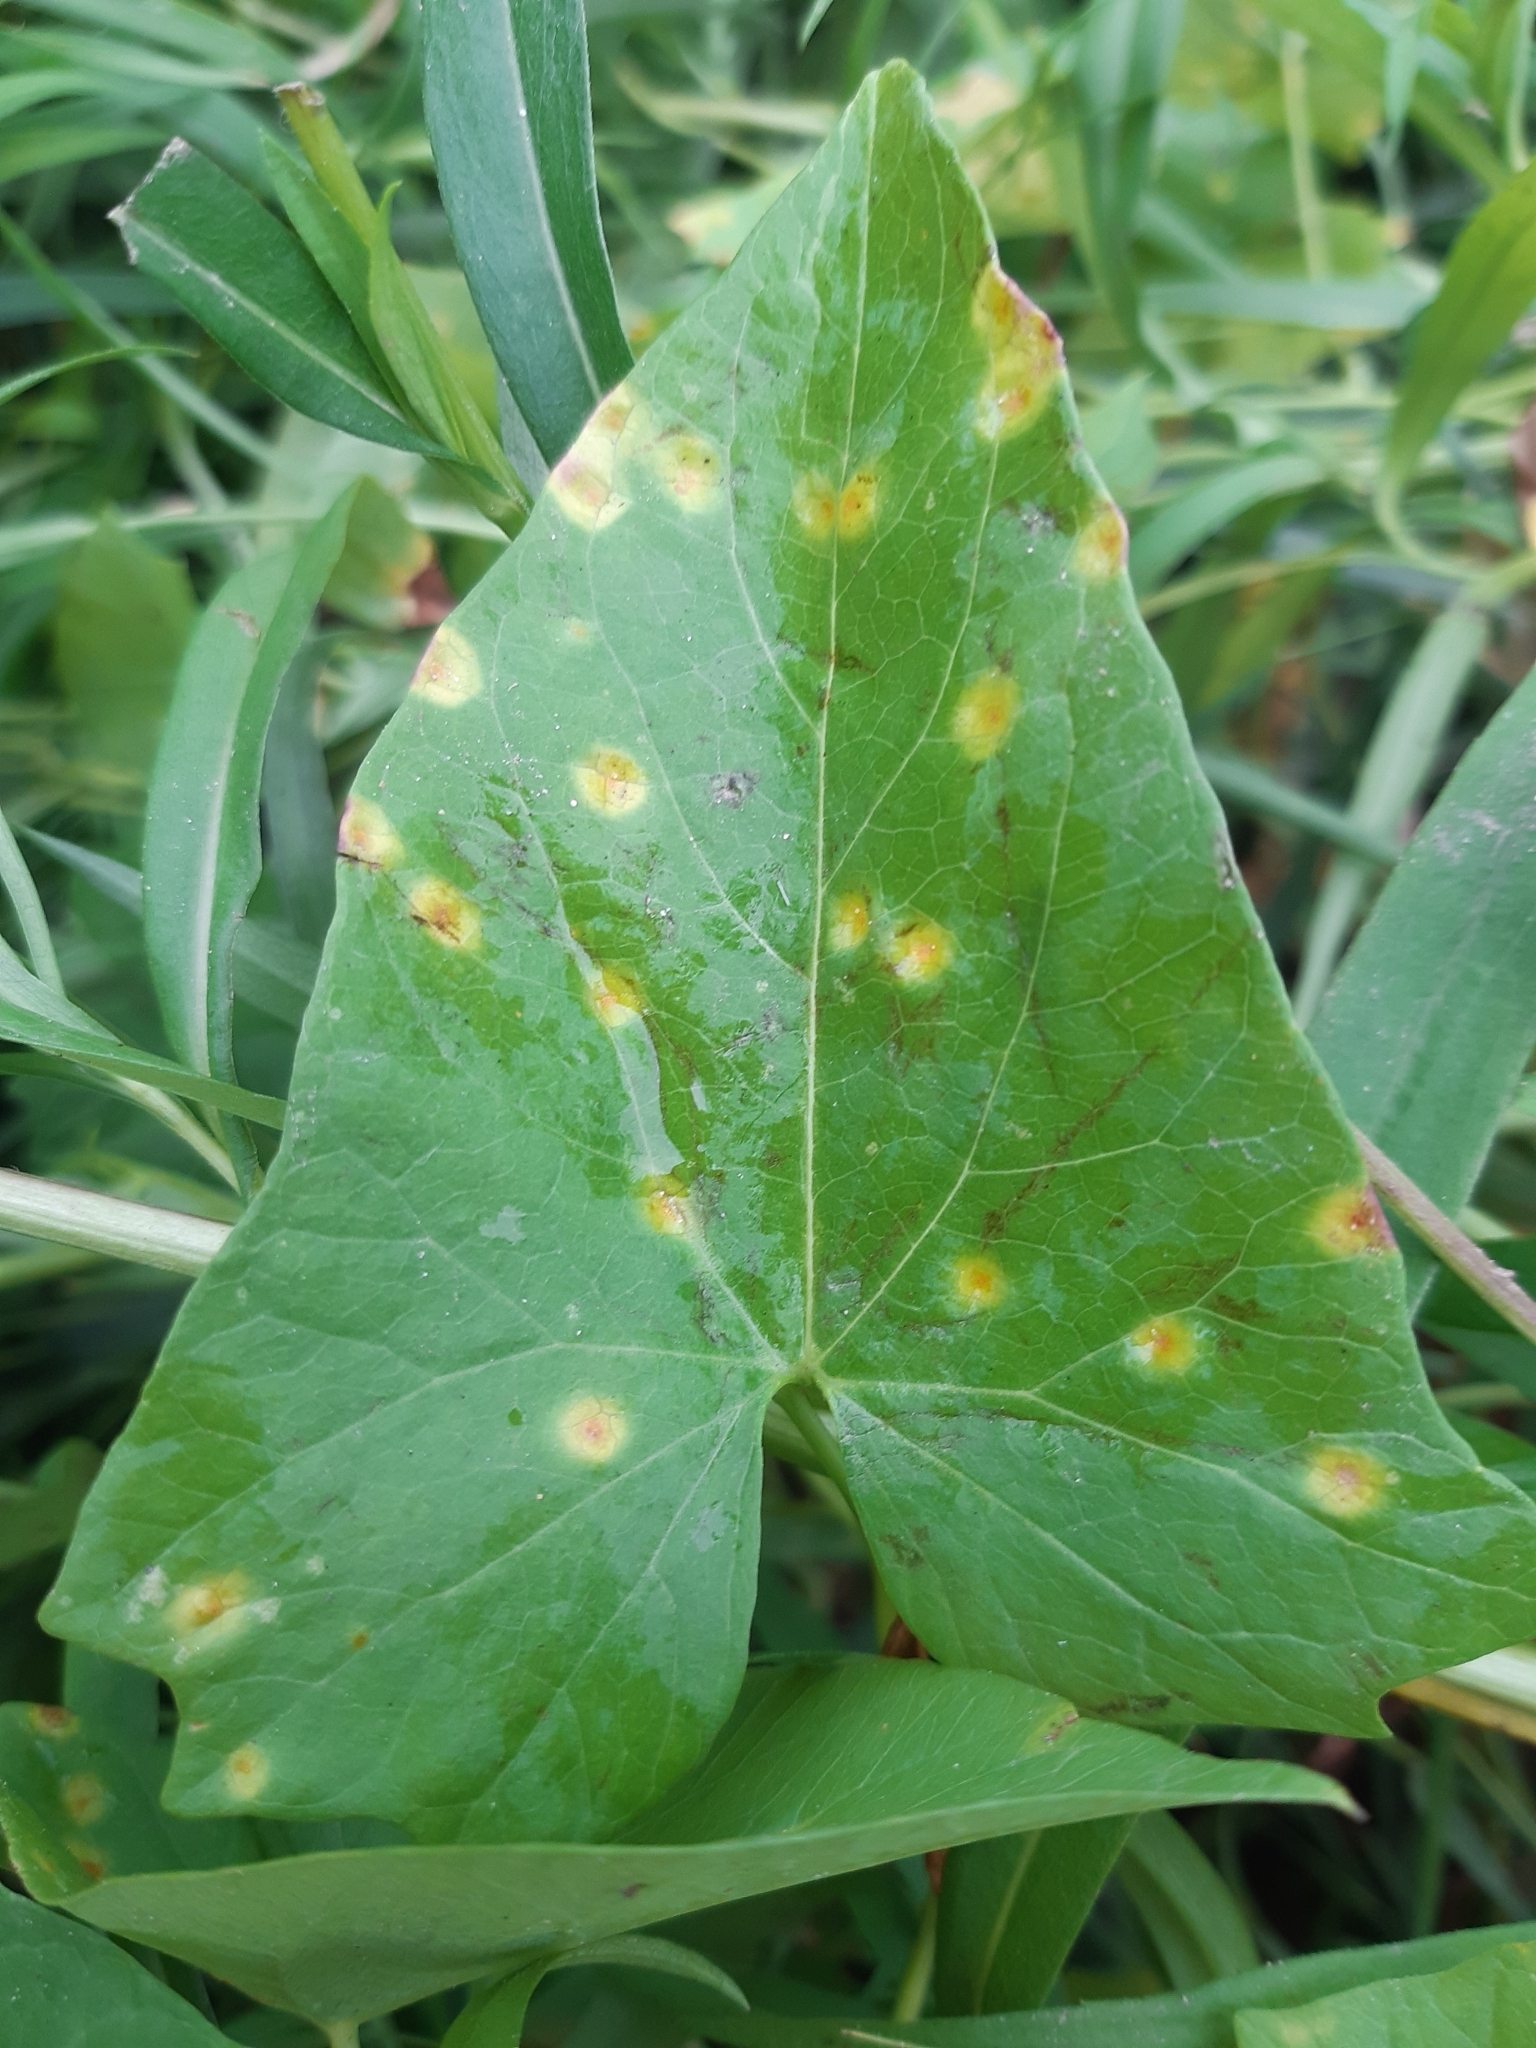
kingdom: Fungi
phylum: Basidiomycota
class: Pucciniomycetes
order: Pucciniales
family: Pucciniaceae
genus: Puccinia
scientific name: Puccinia convolvuli
